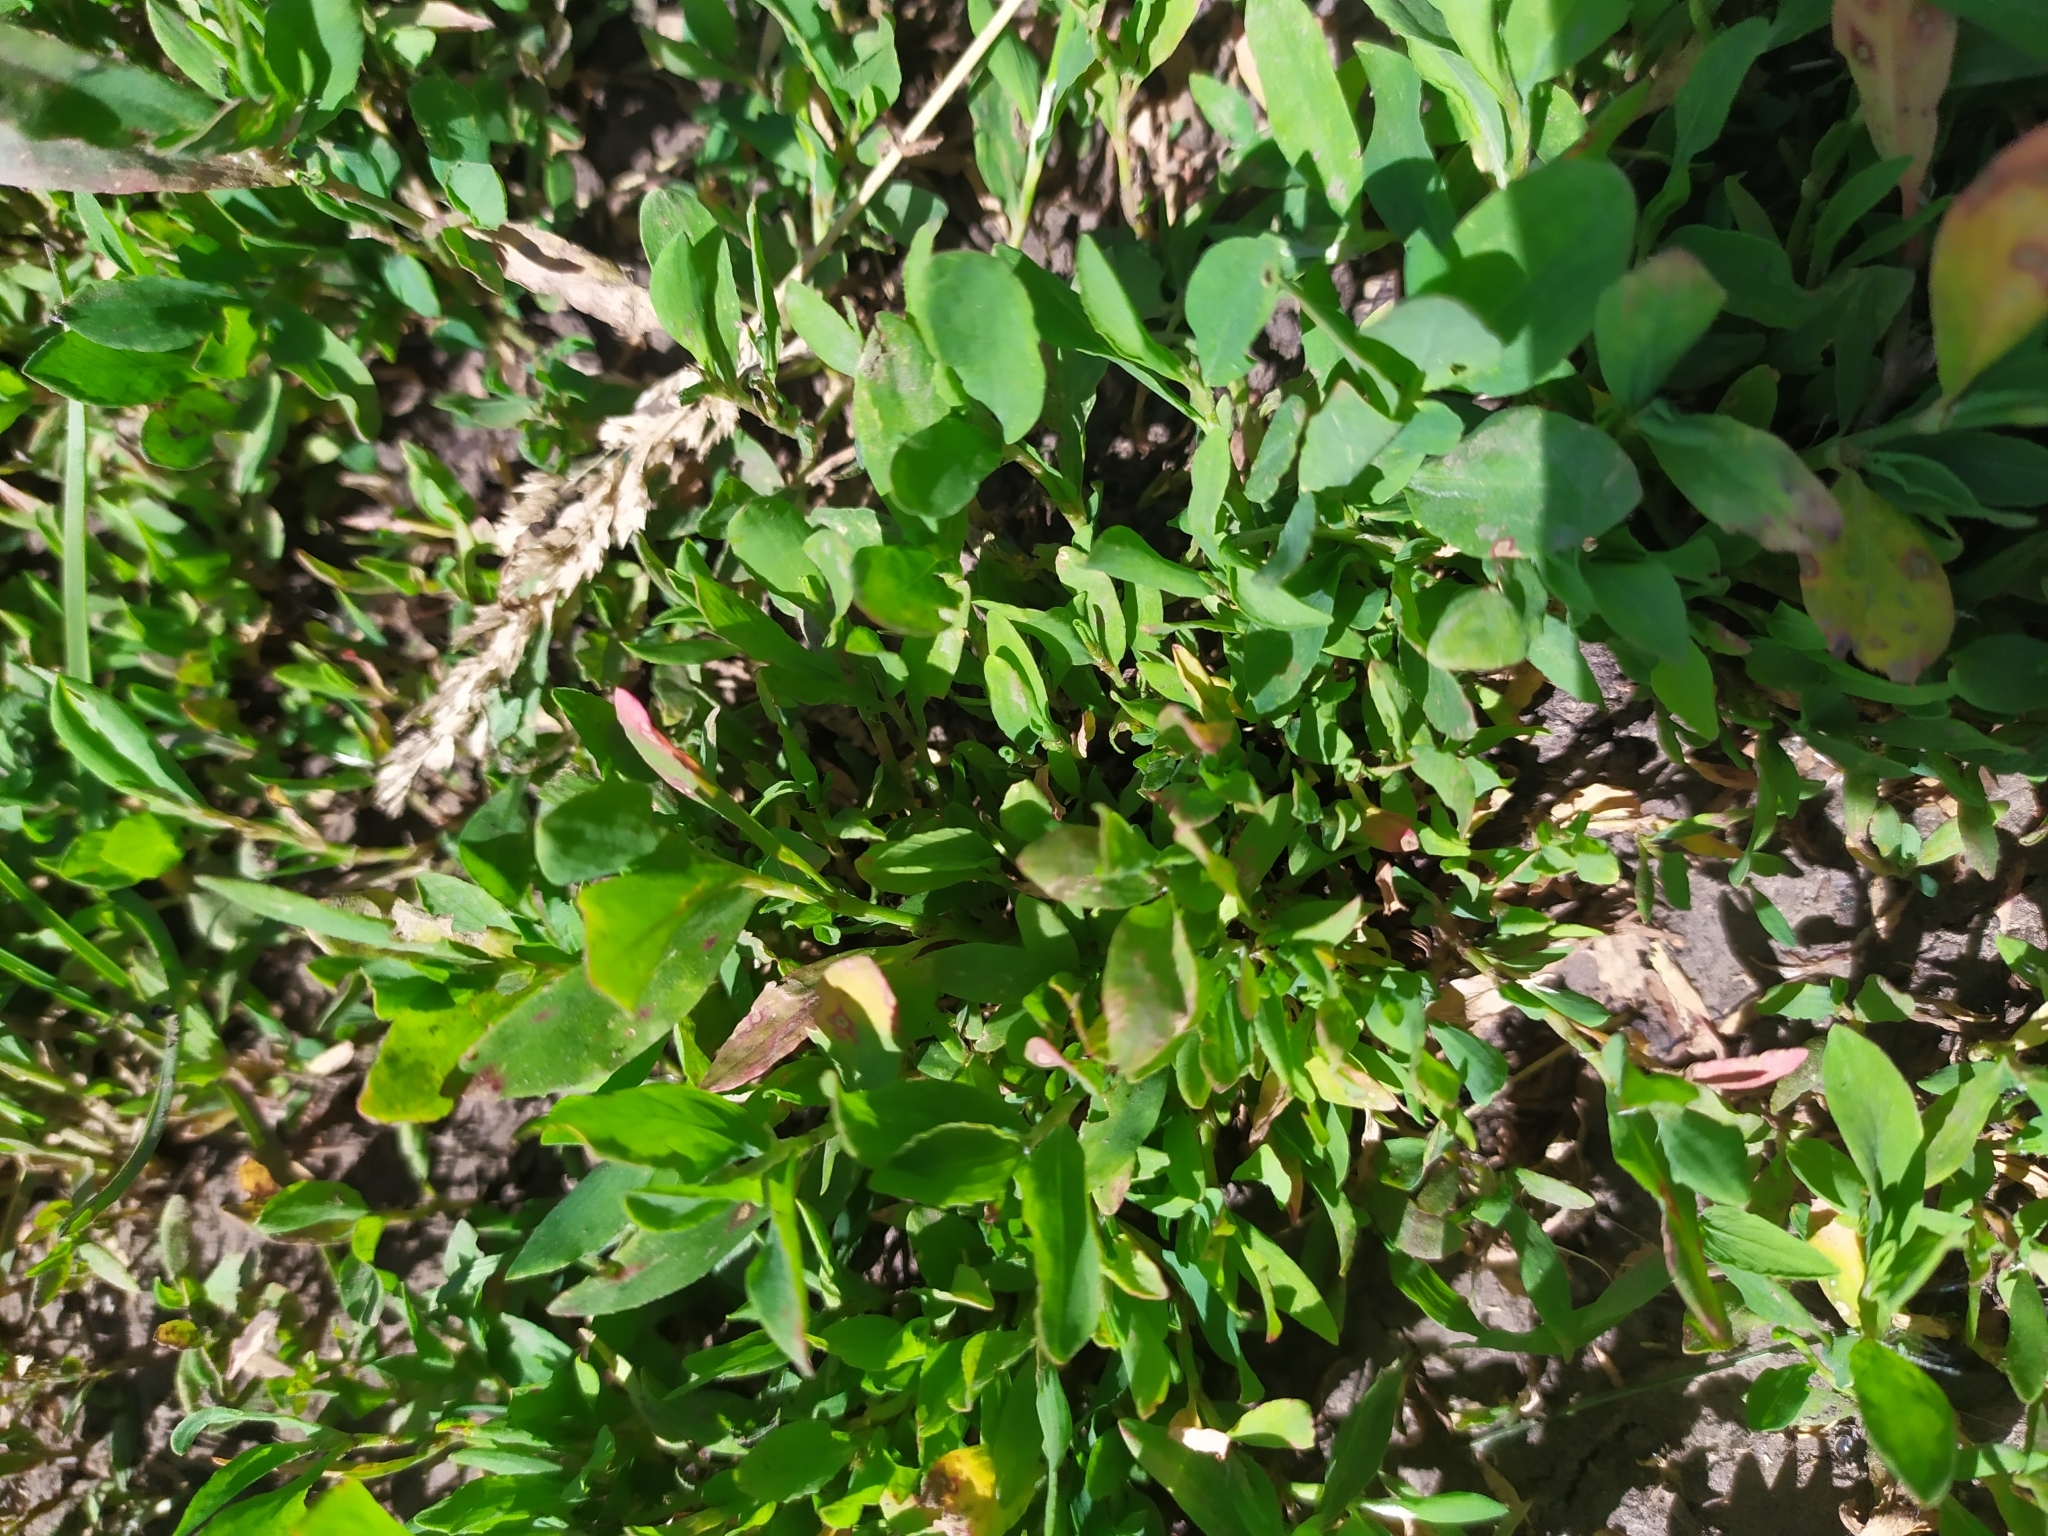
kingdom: Plantae
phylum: Tracheophyta
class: Magnoliopsida
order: Caryophyllales
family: Polygonaceae
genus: Polygonum
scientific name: Polygonum aviculare
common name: Prostrate knotweed
